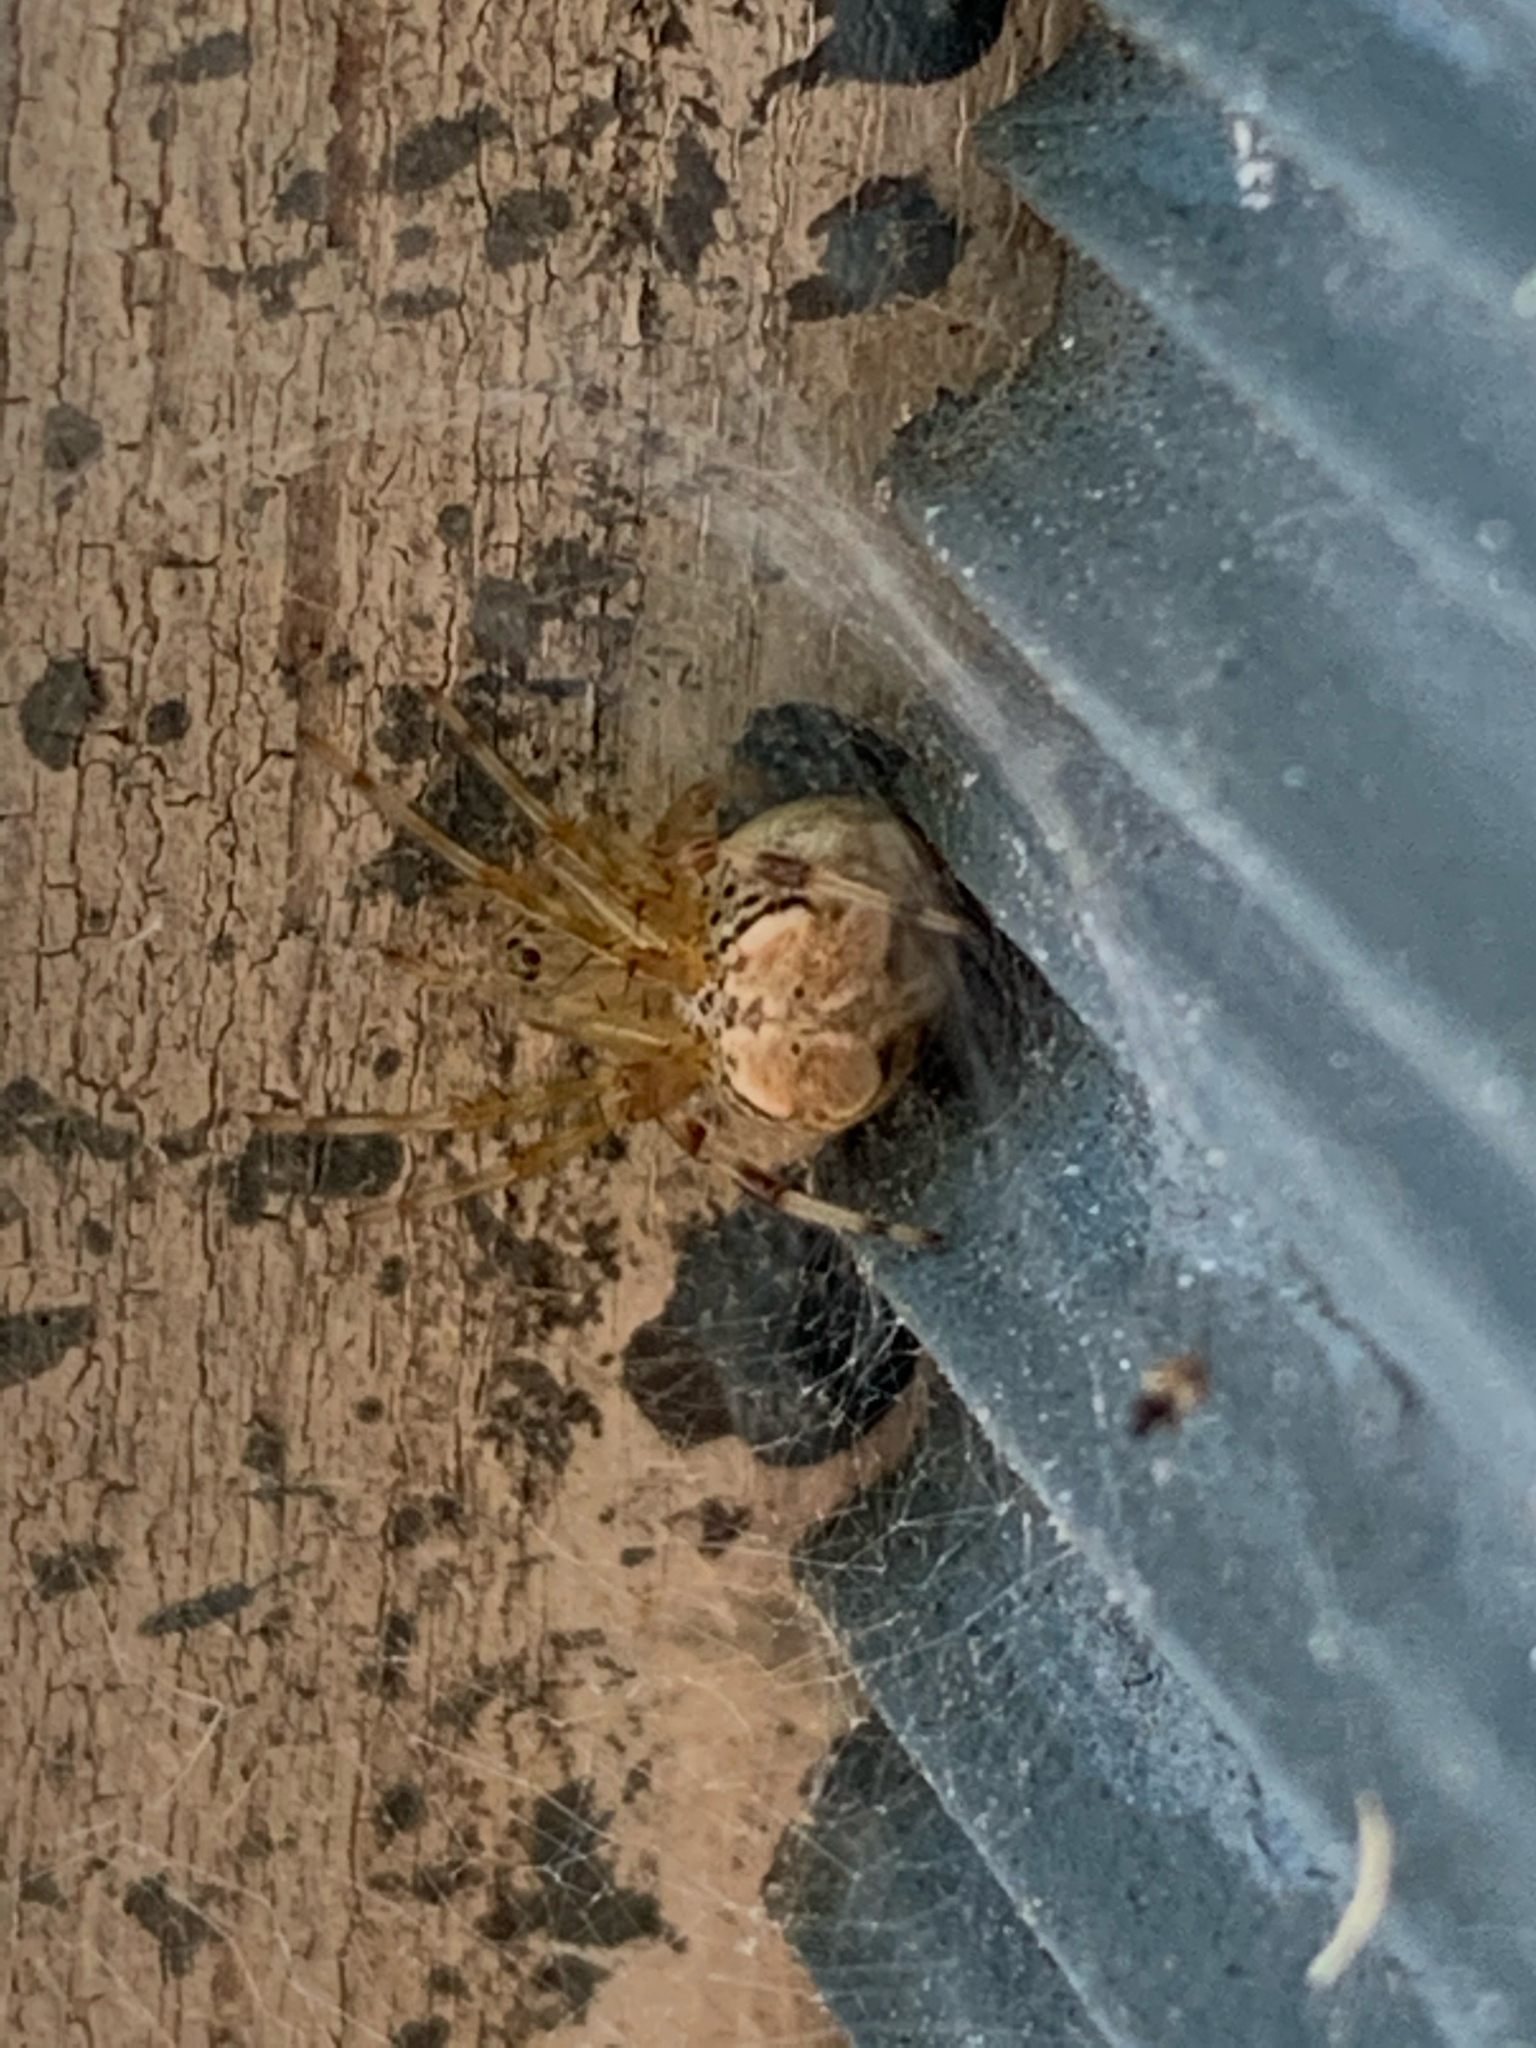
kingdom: Animalia
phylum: Arthropoda
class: Arachnida
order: Araneae
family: Araneidae
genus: Araneus
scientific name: Araneus pegnia
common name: Orb weavers
